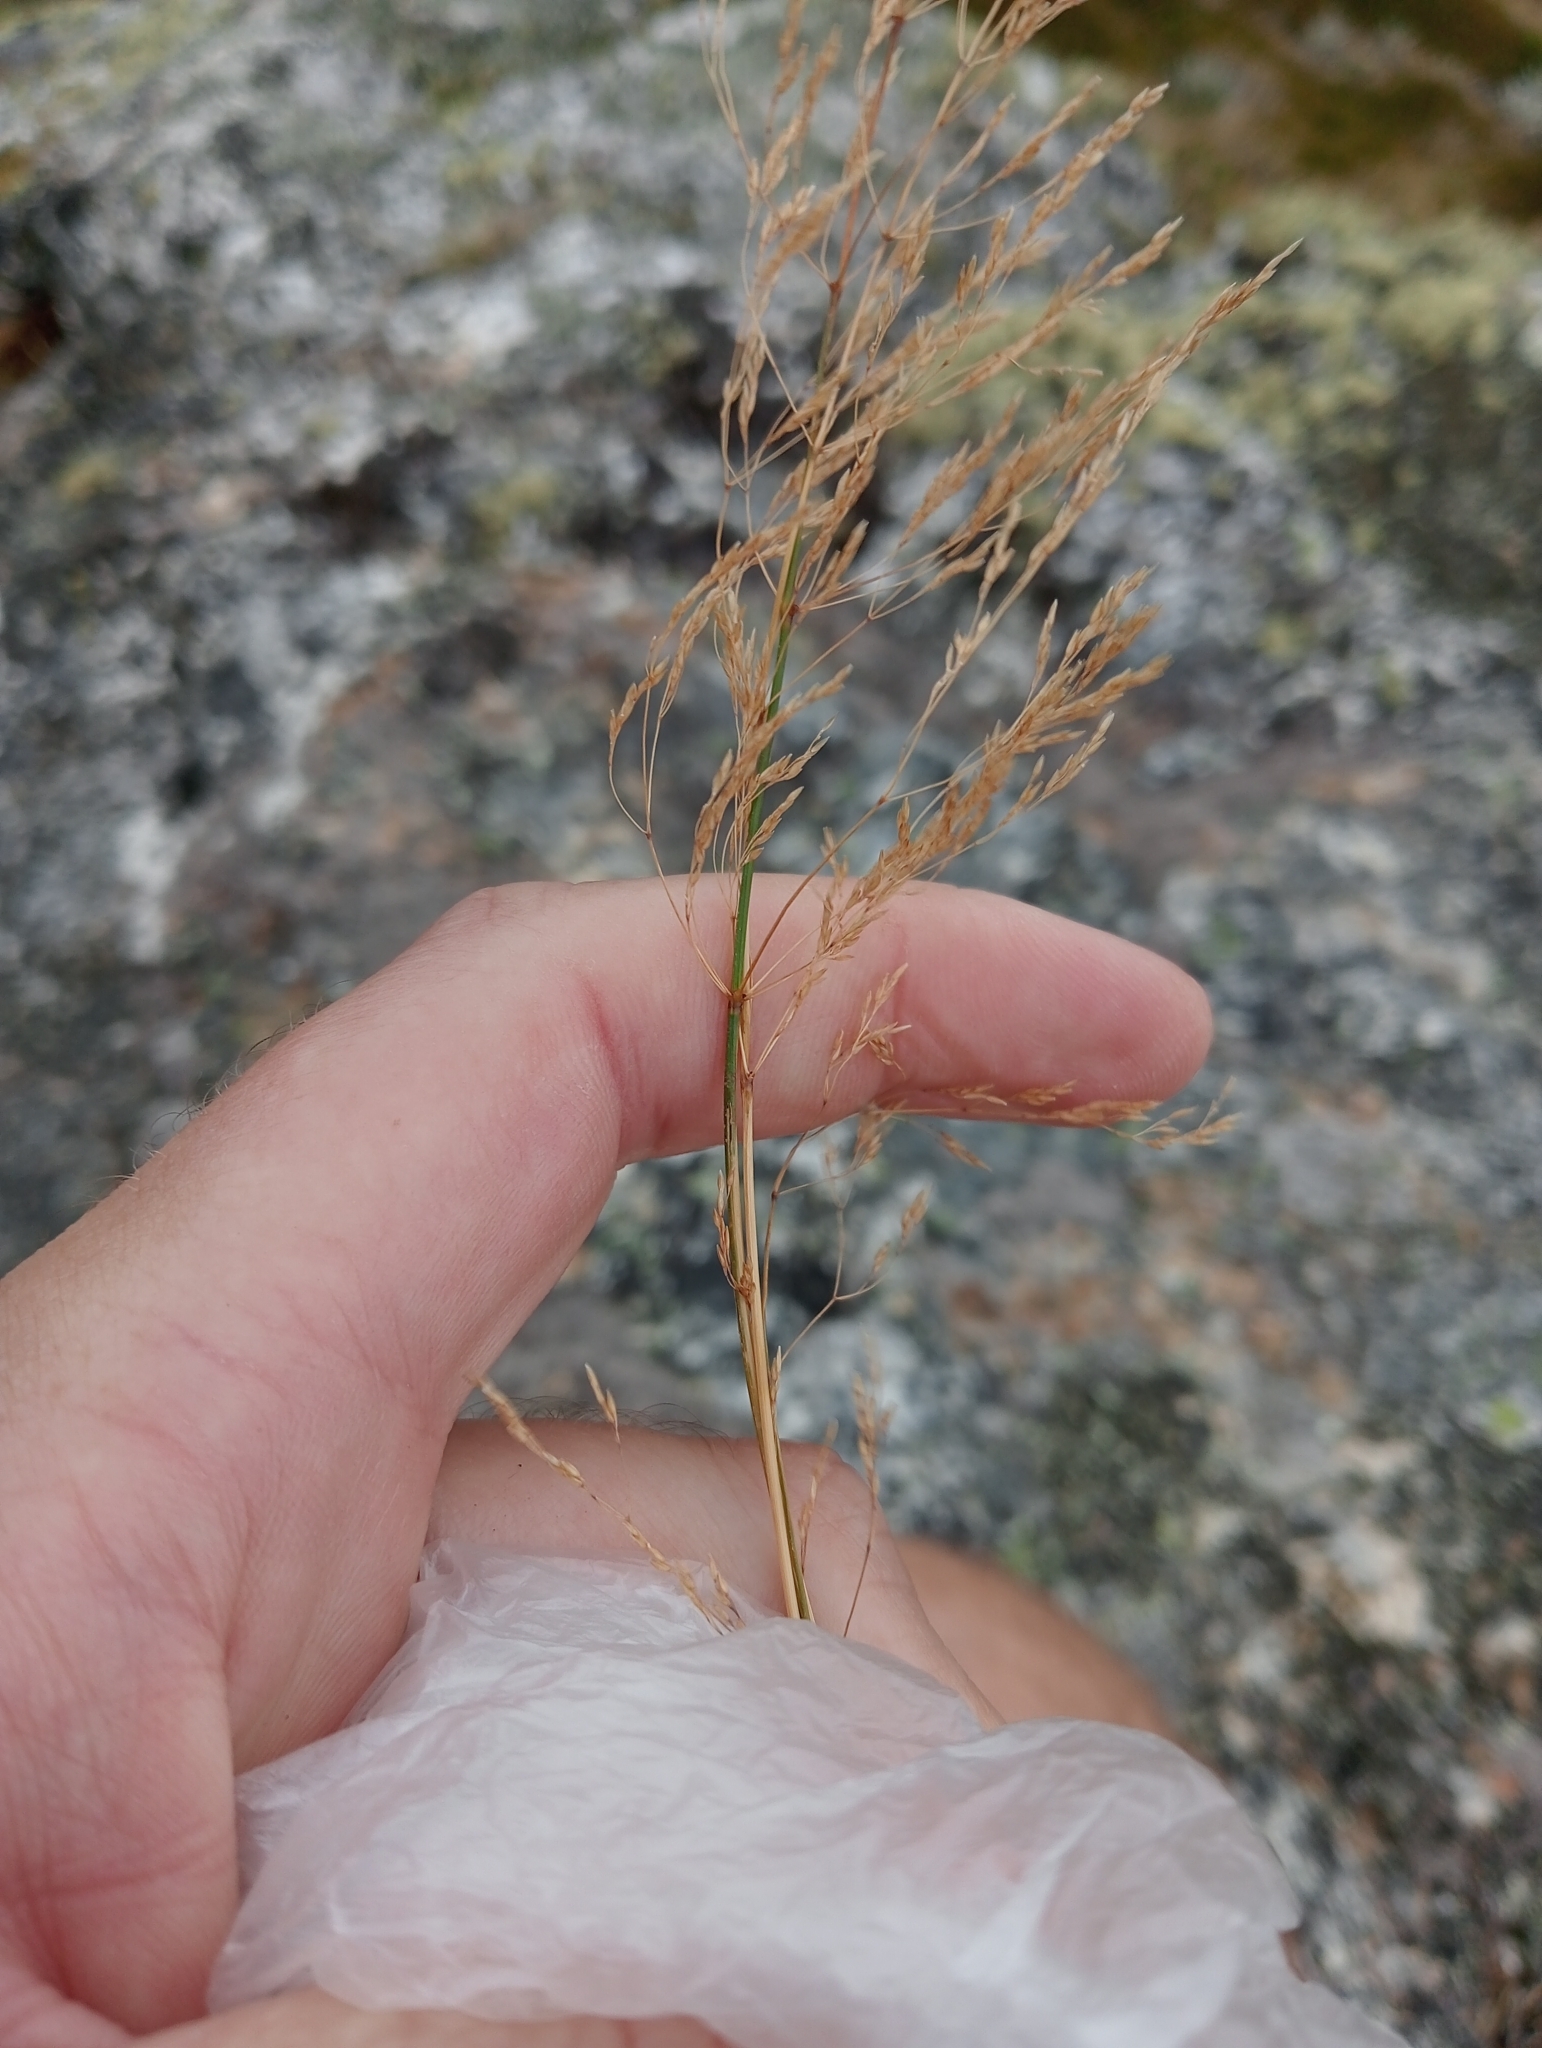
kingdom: Plantae
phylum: Tracheophyta
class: Liliopsida
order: Poales
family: Poaceae
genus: Agrostis
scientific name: Agrostis capillaris
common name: Colonial bentgrass
